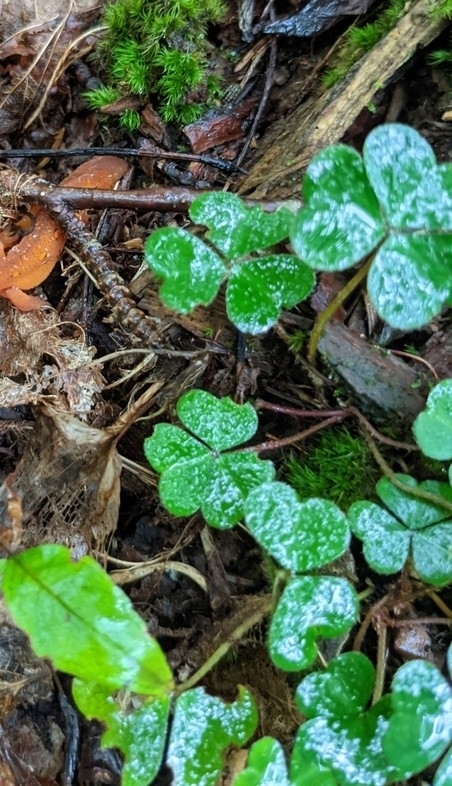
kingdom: Plantae
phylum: Tracheophyta
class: Magnoliopsida
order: Oxalidales
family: Oxalidaceae
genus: Oxalis
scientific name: Oxalis montana
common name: American wood-sorrel
